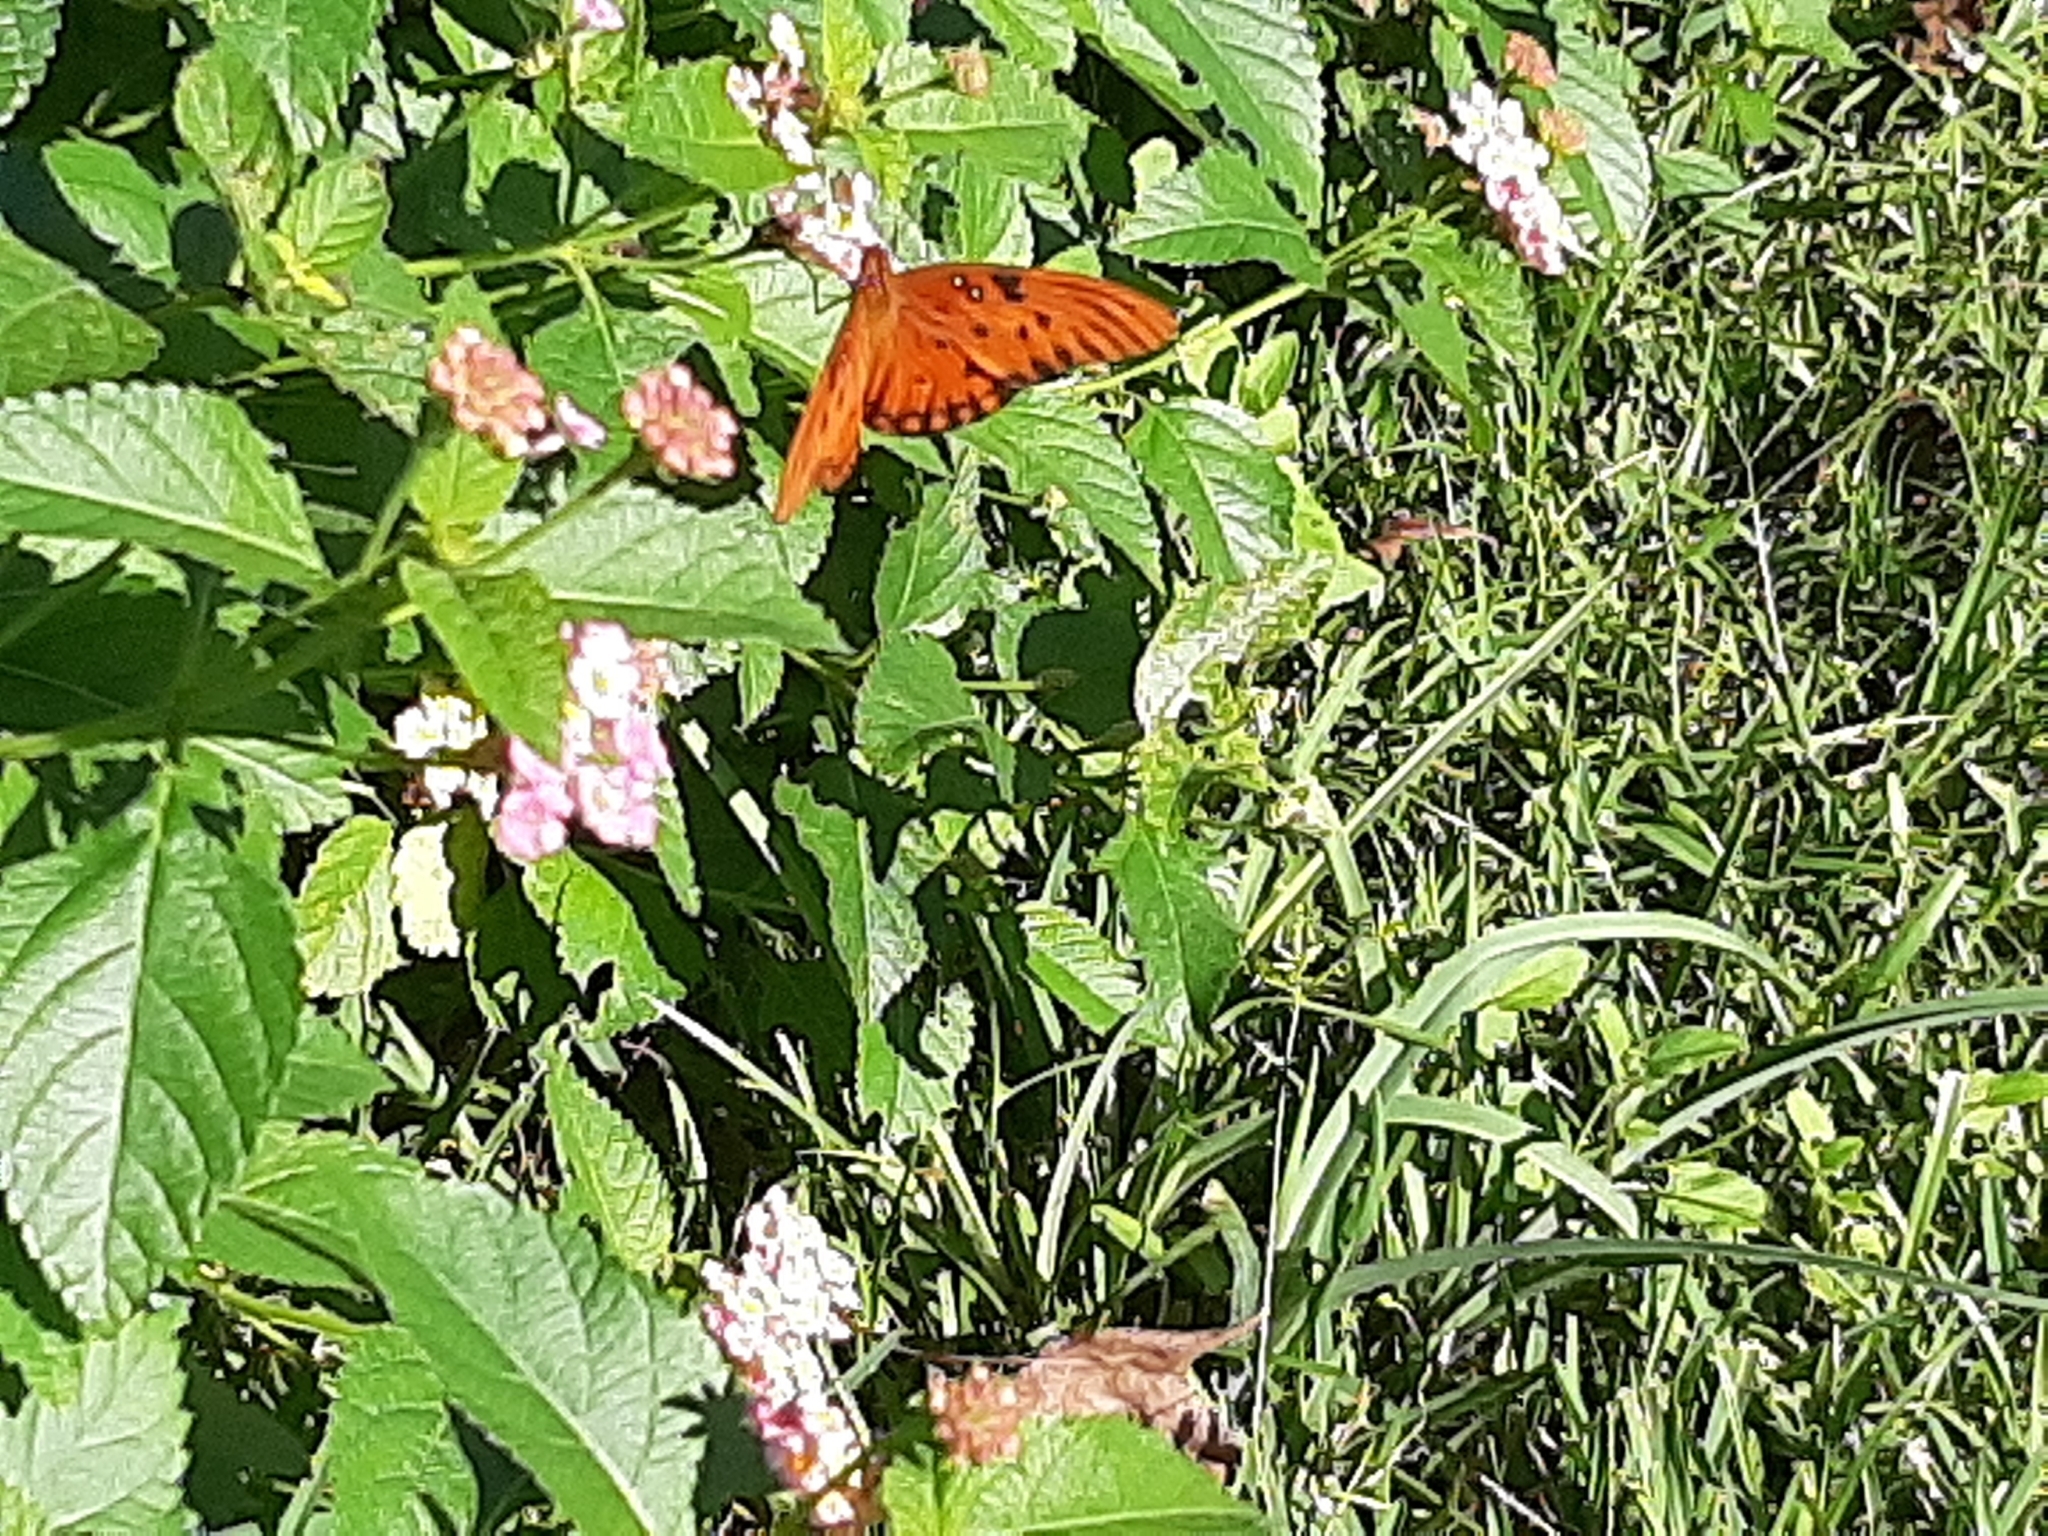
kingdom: Animalia
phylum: Arthropoda
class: Insecta
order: Lepidoptera
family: Nymphalidae
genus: Dione
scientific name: Dione vanillae
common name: Gulf fritillary
